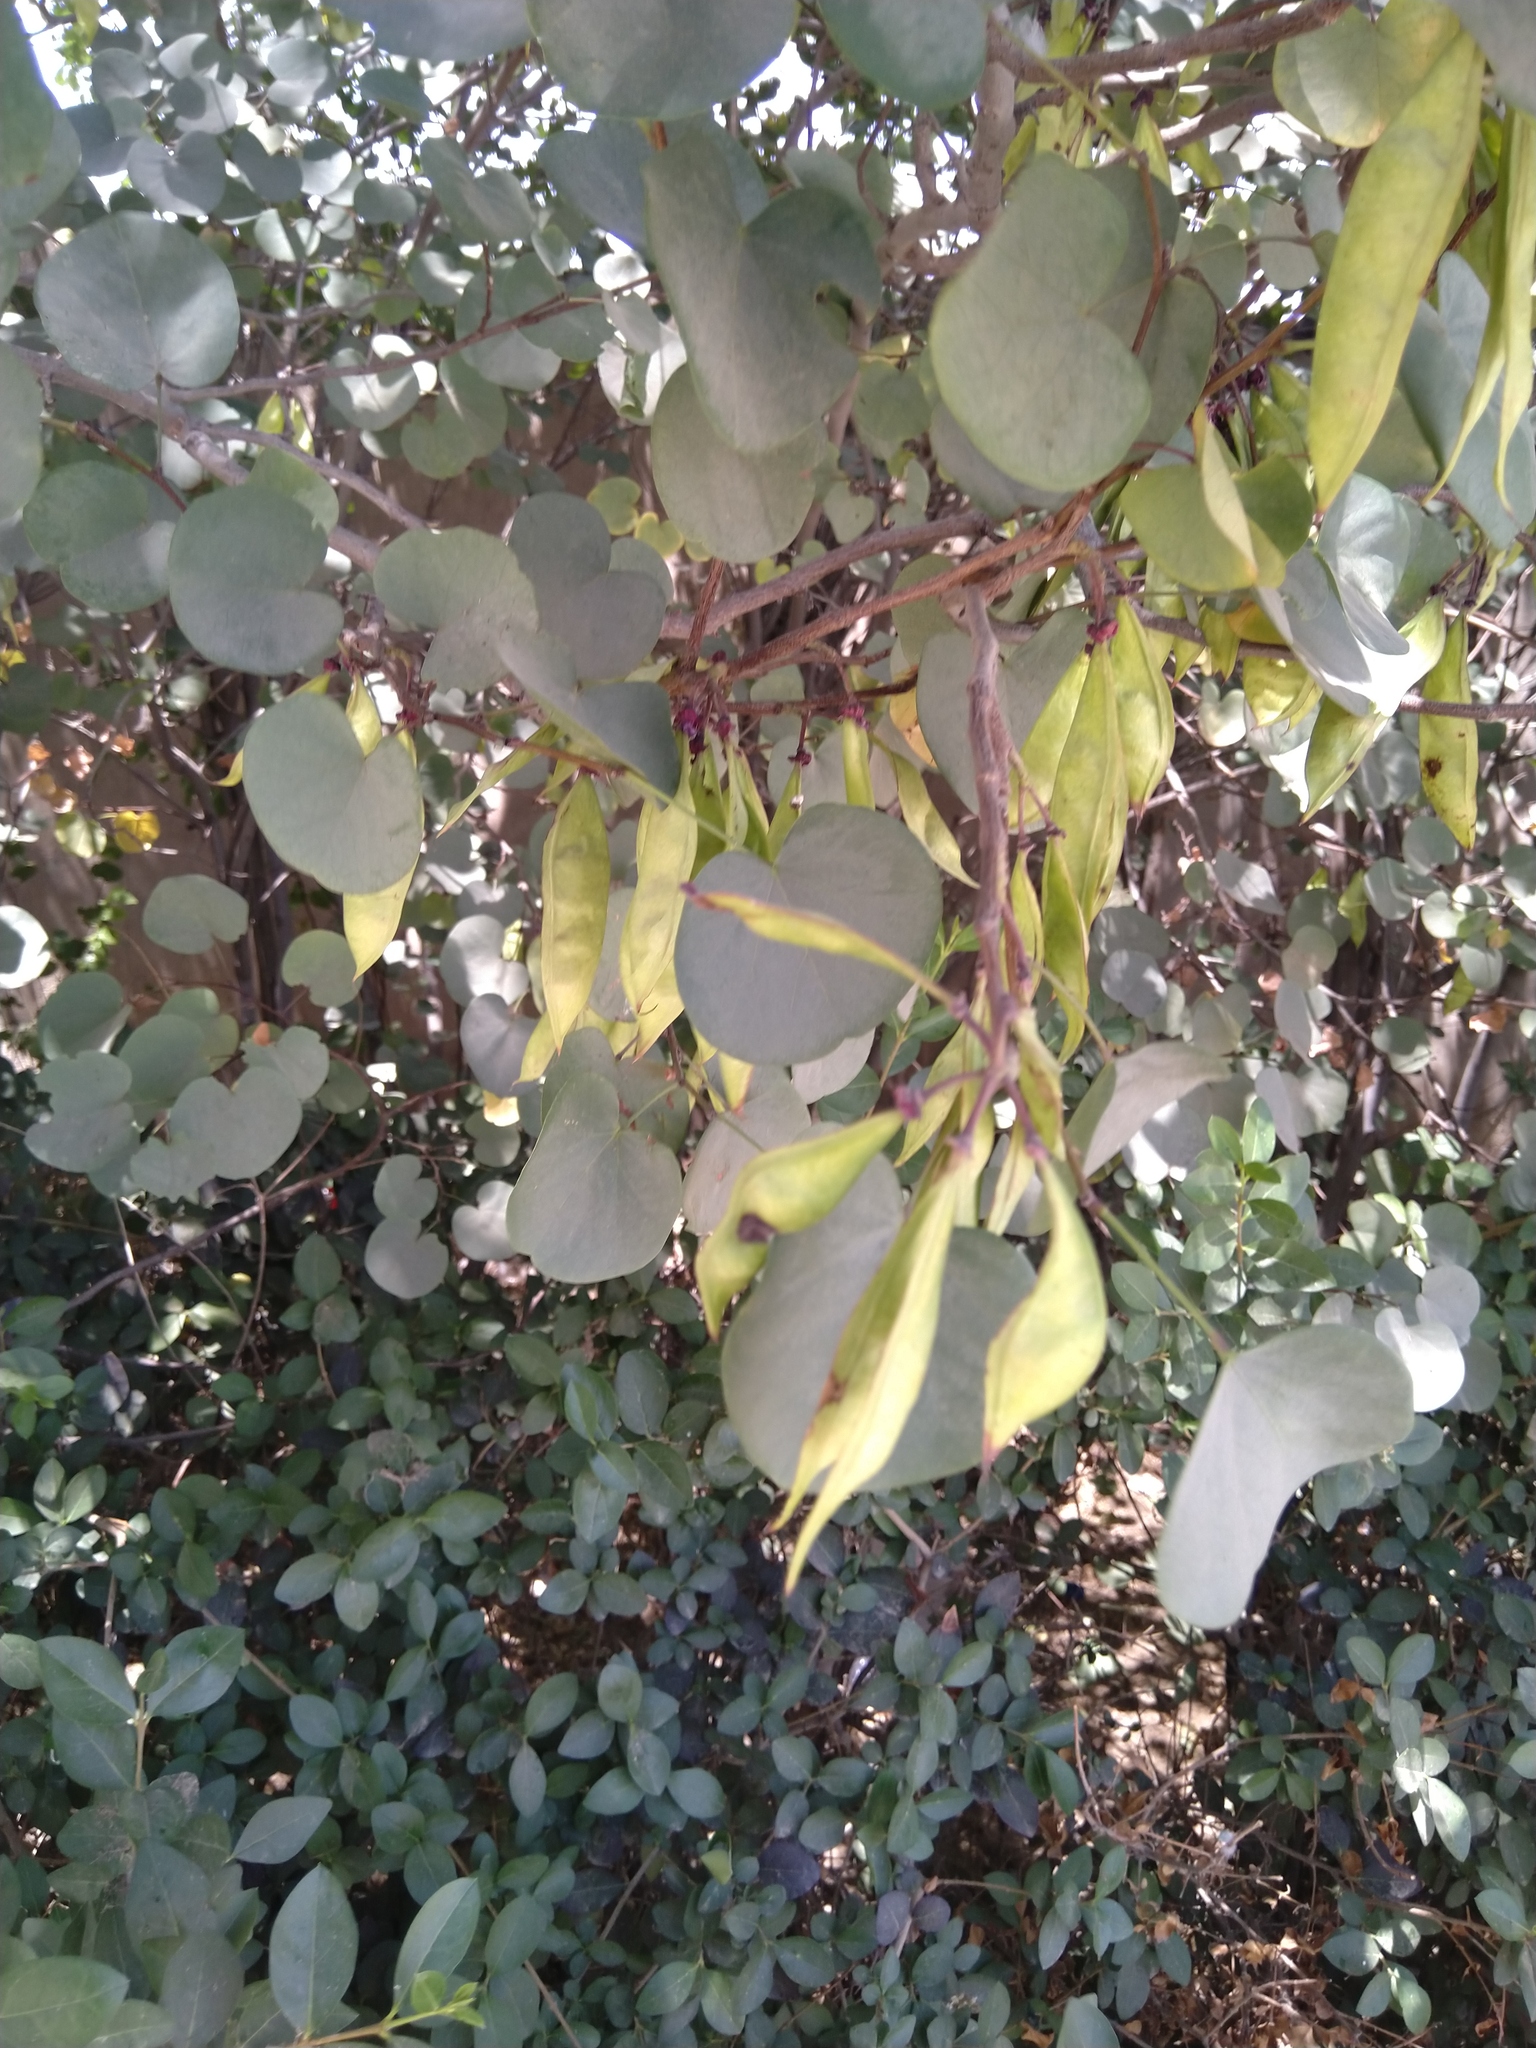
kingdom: Plantae
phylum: Tracheophyta
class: Magnoliopsida
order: Fabales
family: Fabaceae
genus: Cercis
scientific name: Cercis siliquastrum
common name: Judas tree
